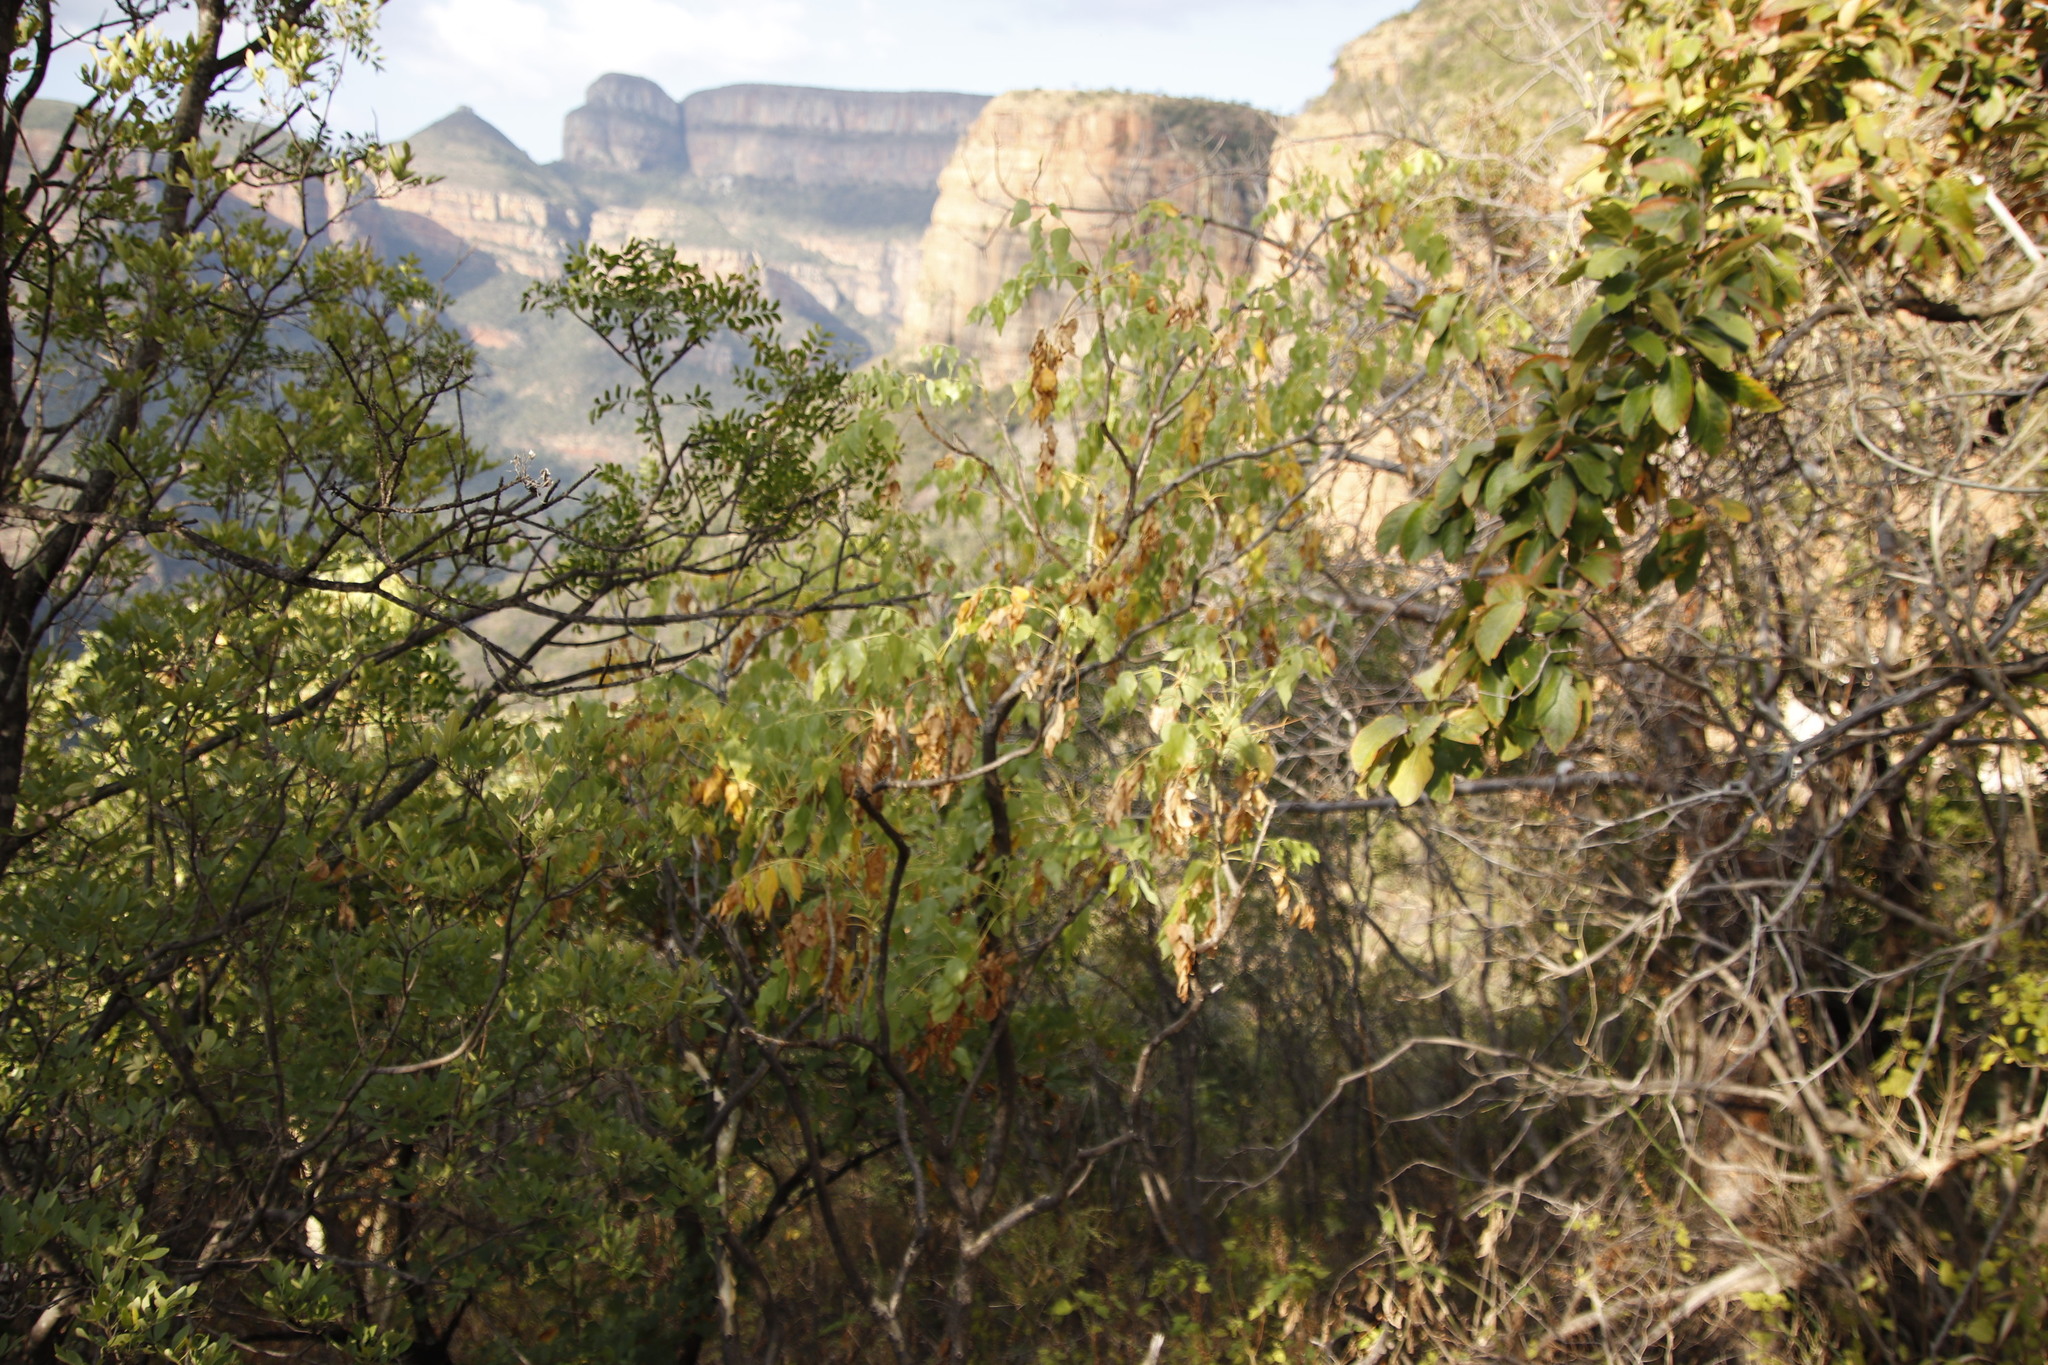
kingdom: Plantae
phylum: Tracheophyta
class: Magnoliopsida
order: Apiales
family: Apiaceae
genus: Steganotaenia
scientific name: Steganotaenia araliacea
